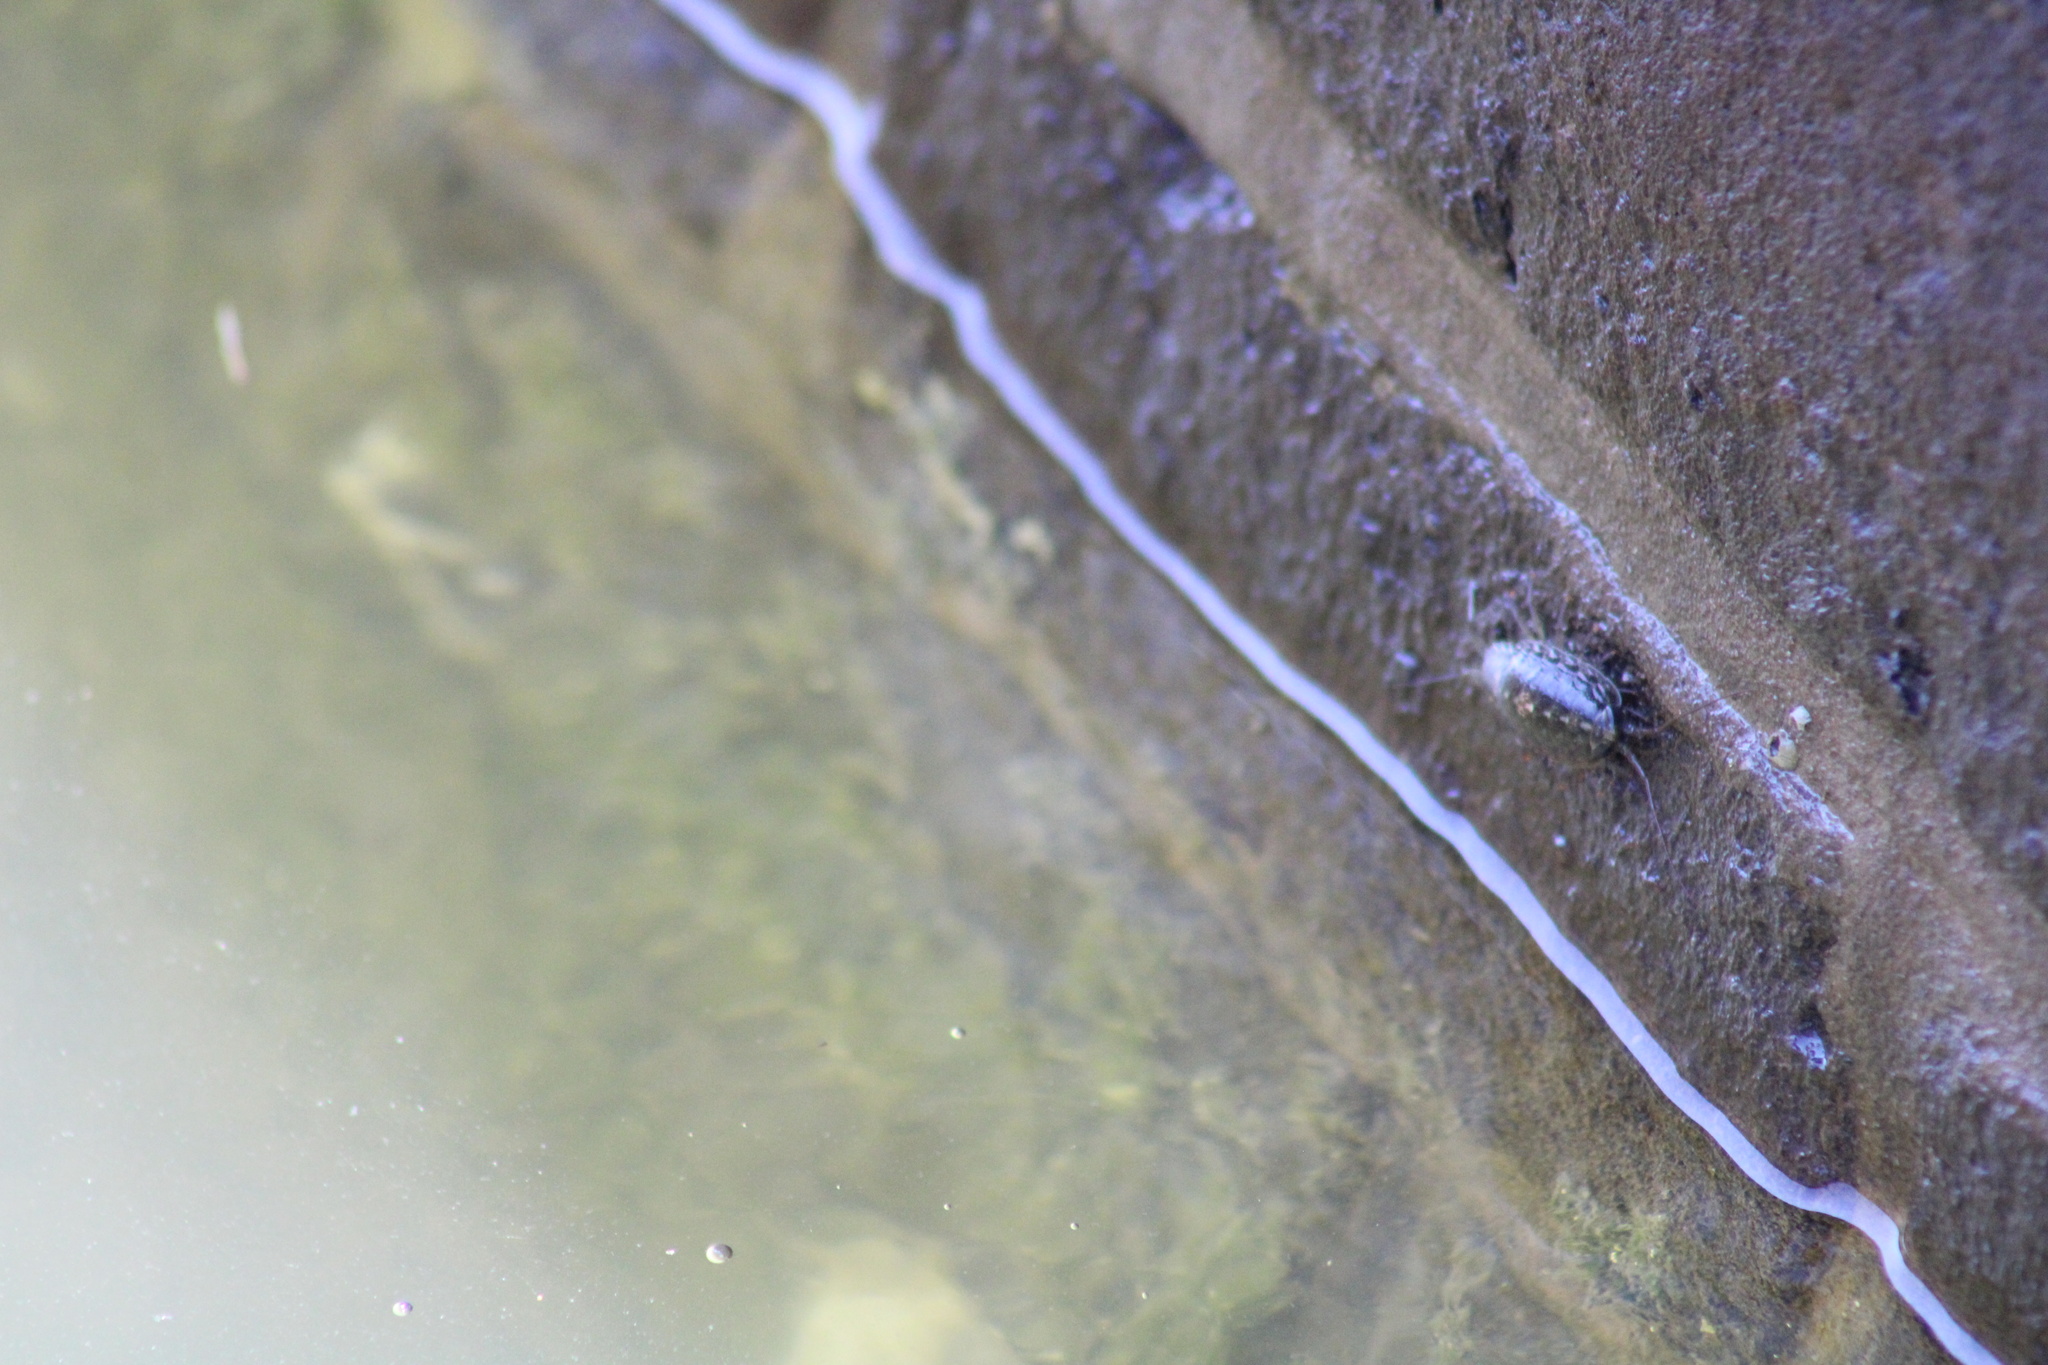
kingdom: Animalia
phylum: Arthropoda
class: Malacostraca
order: Isopoda
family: Ligiidae
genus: Ligia
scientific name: Ligia exotica
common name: Wharf roach
